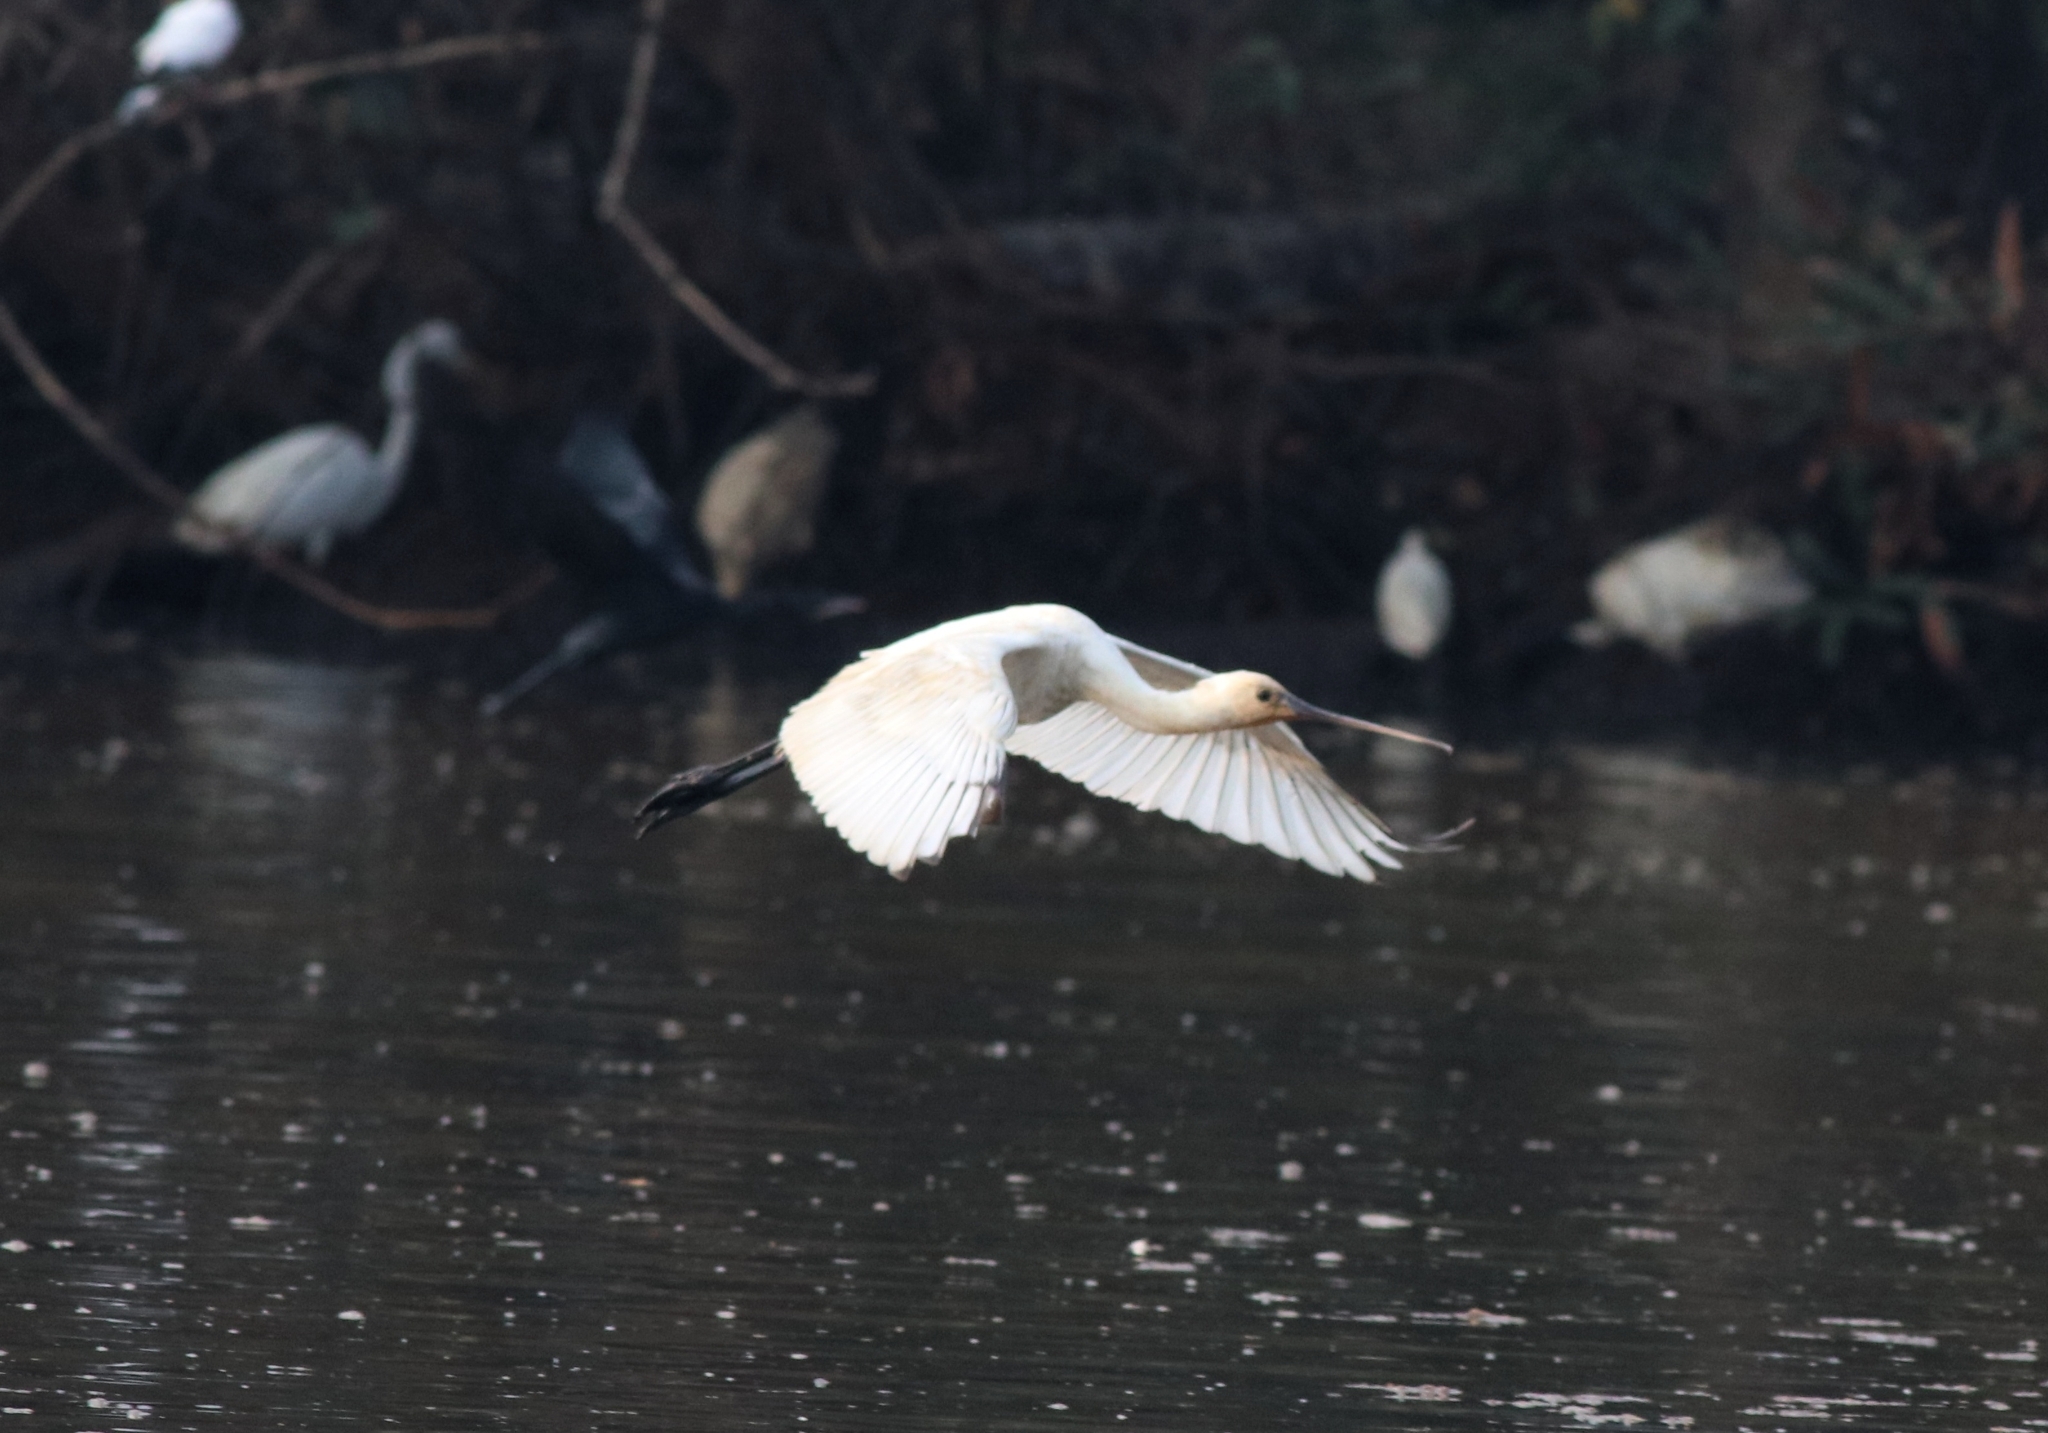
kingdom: Animalia
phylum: Chordata
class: Aves
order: Pelecaniformes
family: Threskiornithidae
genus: Platalea
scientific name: Platalea leucorodia
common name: Eurasian spoonbill
